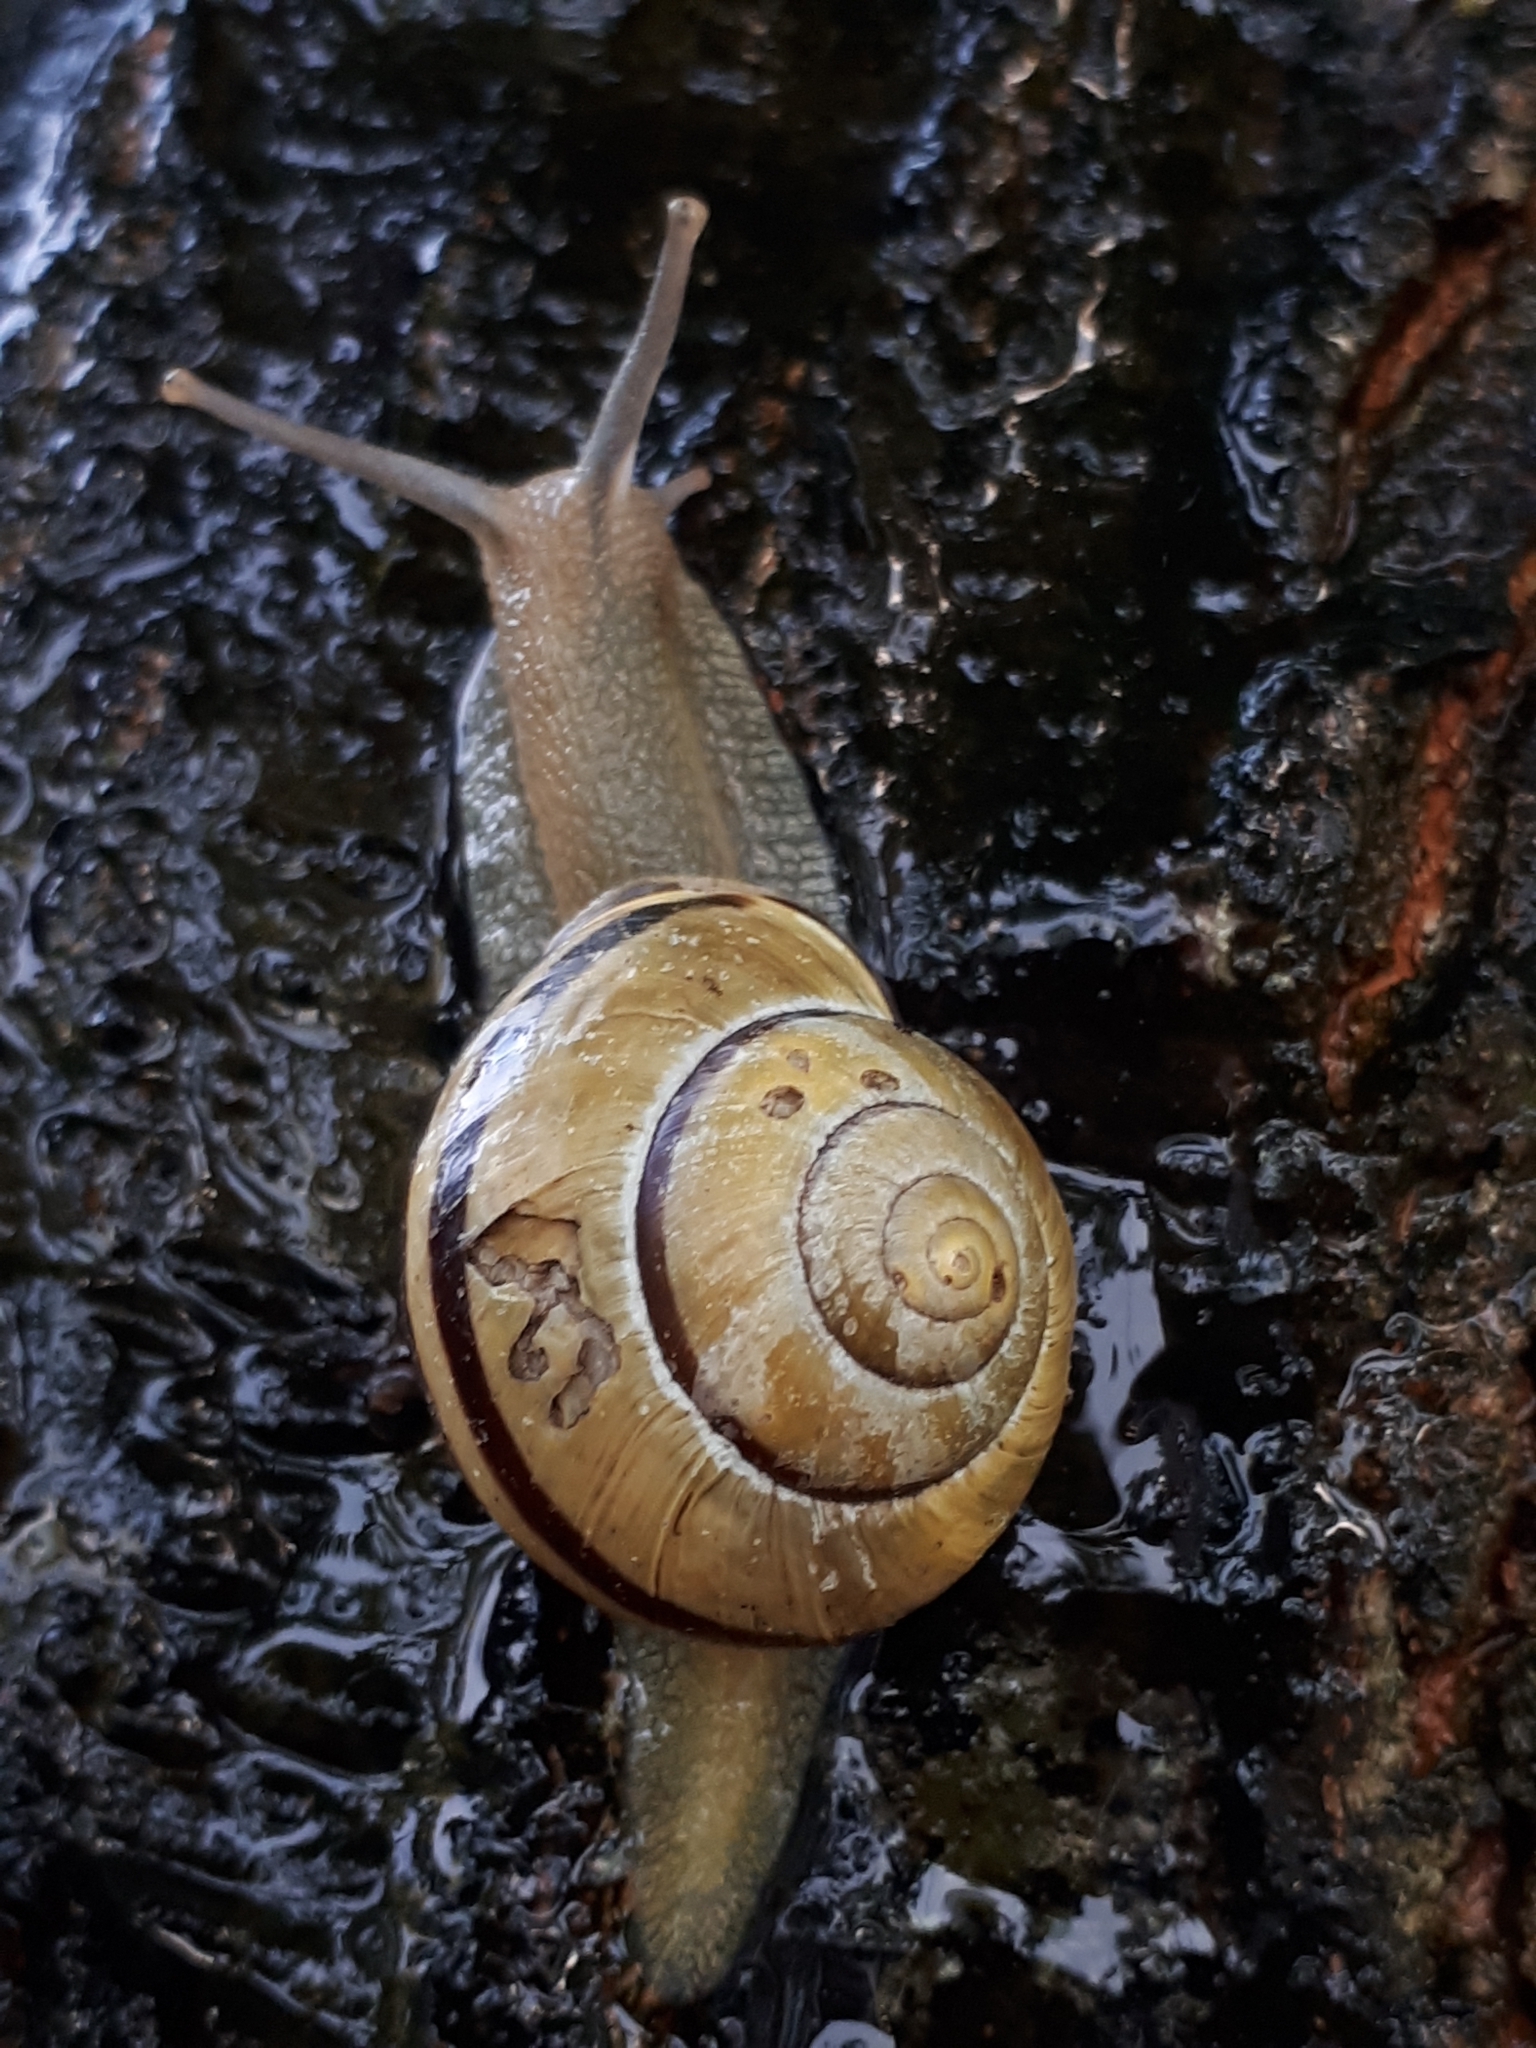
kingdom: Animalia
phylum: Mollusca
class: Gastropoda
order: Stylommatophora
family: Helicidae
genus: Cepaea
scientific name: Cepaea nemoralis
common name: Grovesnail
